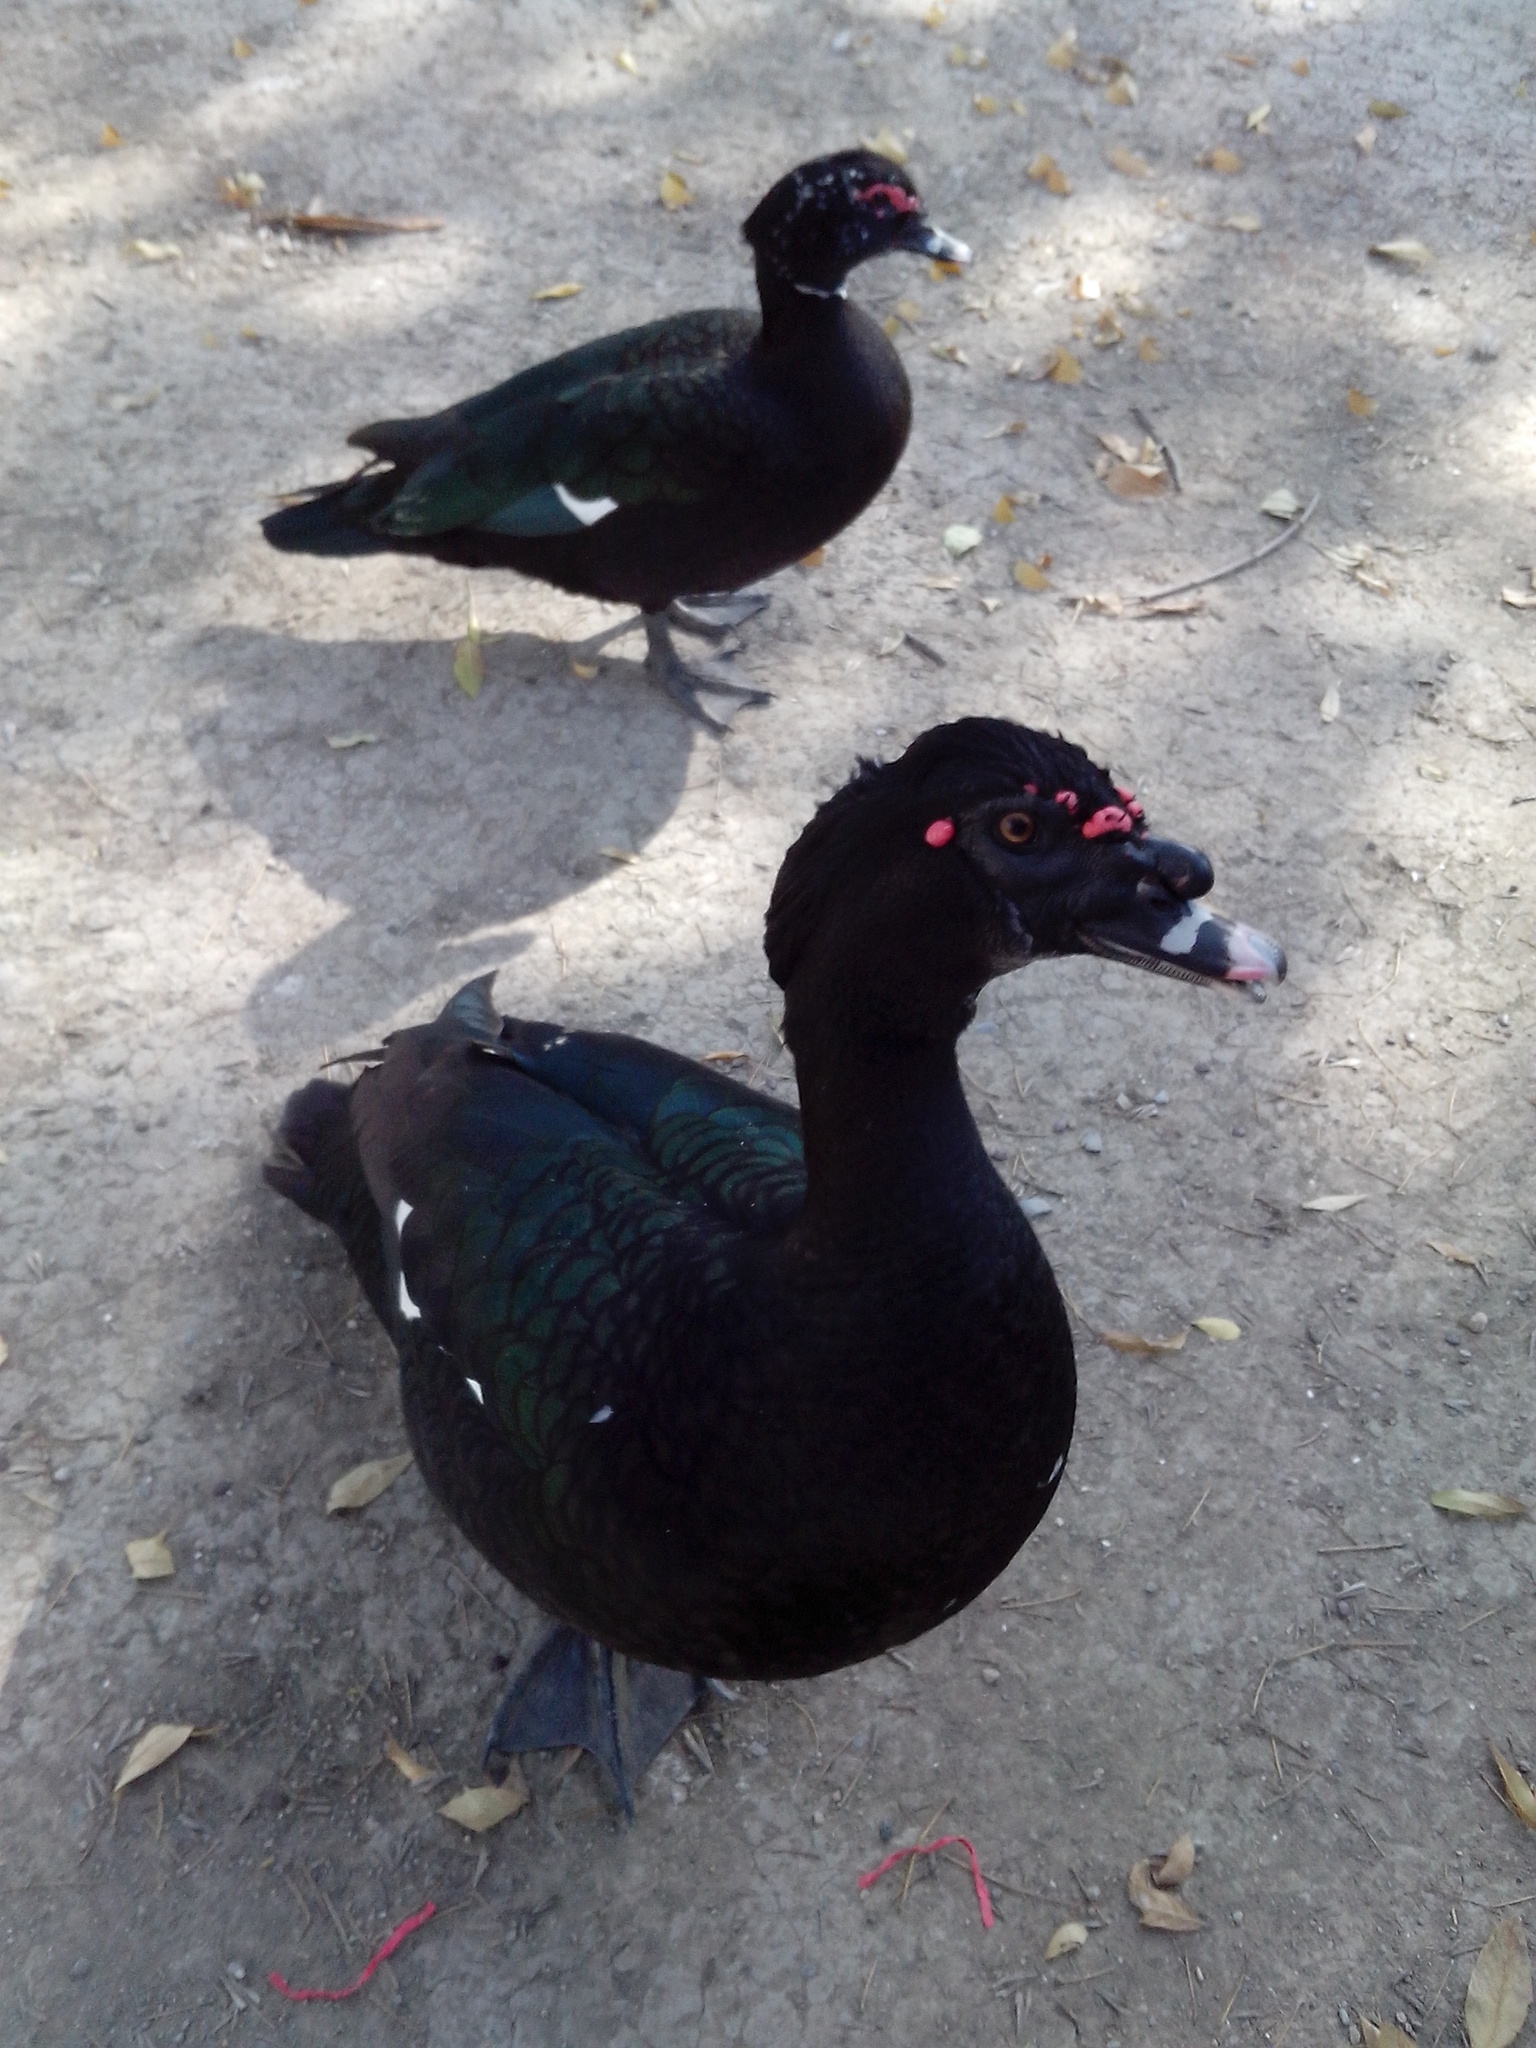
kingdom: Animalia
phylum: Chordata
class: Aves
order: Anseriformes
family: Anatidae
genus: Cairina
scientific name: Cairina moschata
